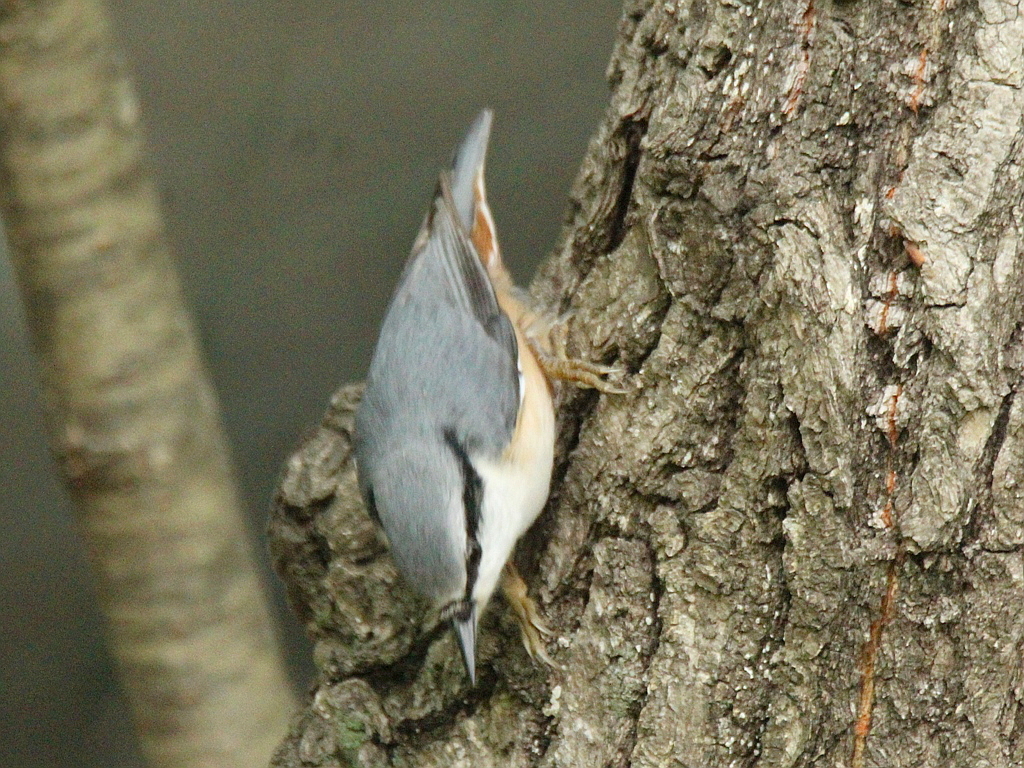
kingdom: Animalia
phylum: Chordata
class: Aves
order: Passeriformes
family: Sittidae
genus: Sitta
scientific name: Sitta europaea
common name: Eurasian nuthatch
